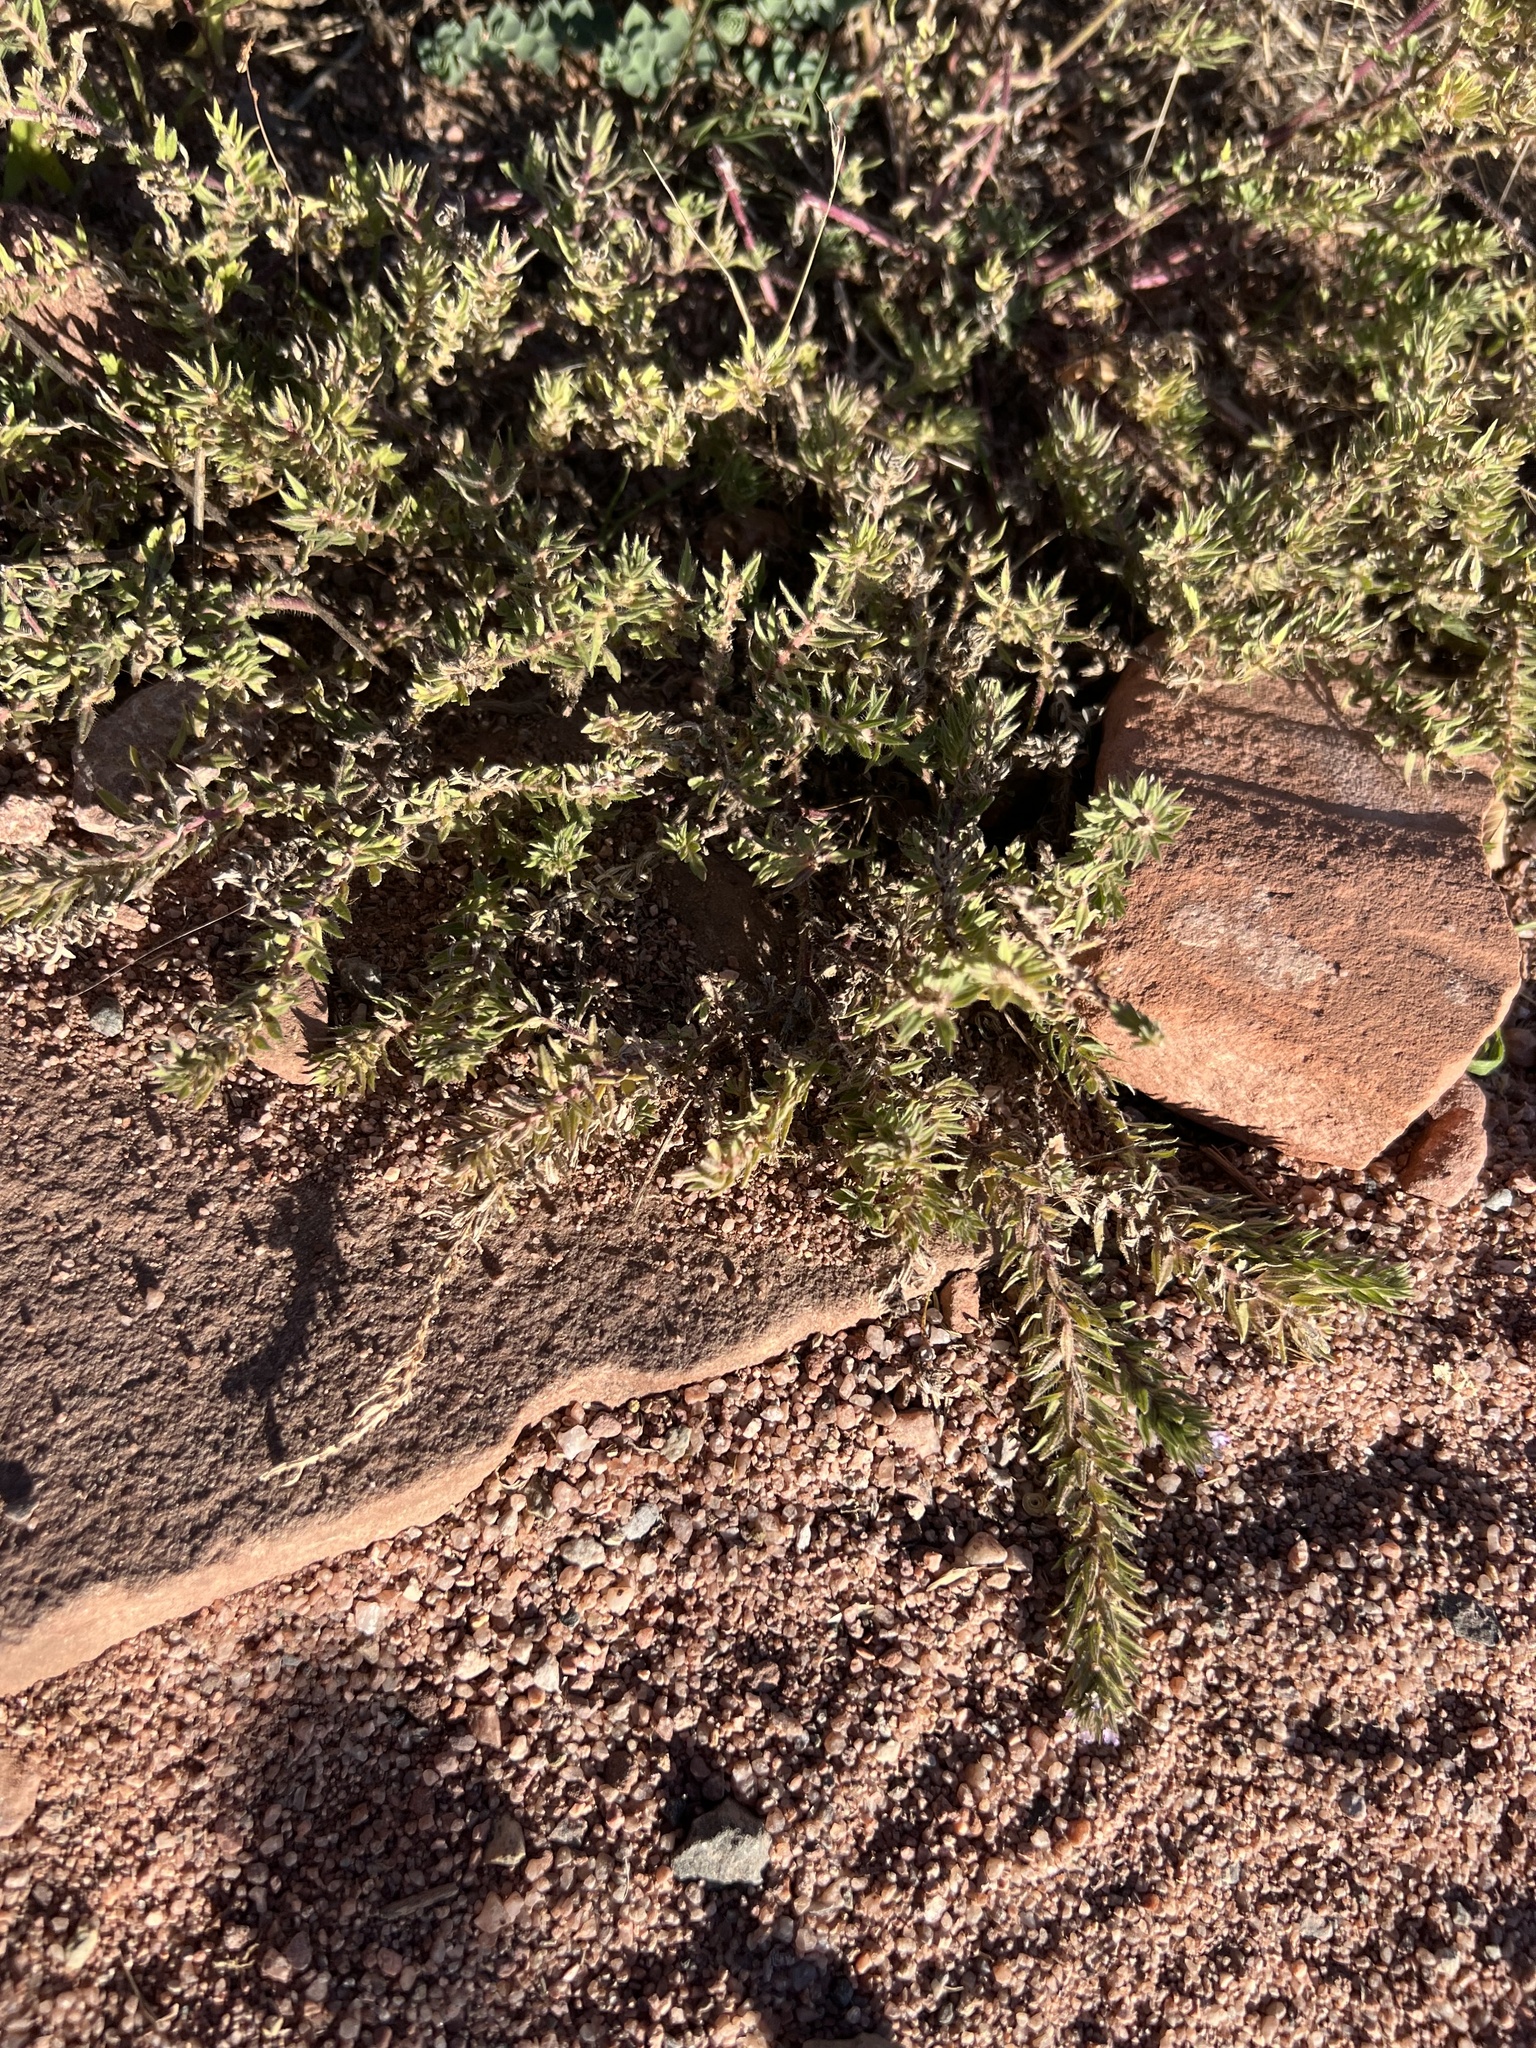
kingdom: Plantae
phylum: Tracheophyta
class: Magnoliopsida
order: Lamiales
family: Verbenaceae
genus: Verbena
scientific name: Verbena bracteata
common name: Bracted vervain
